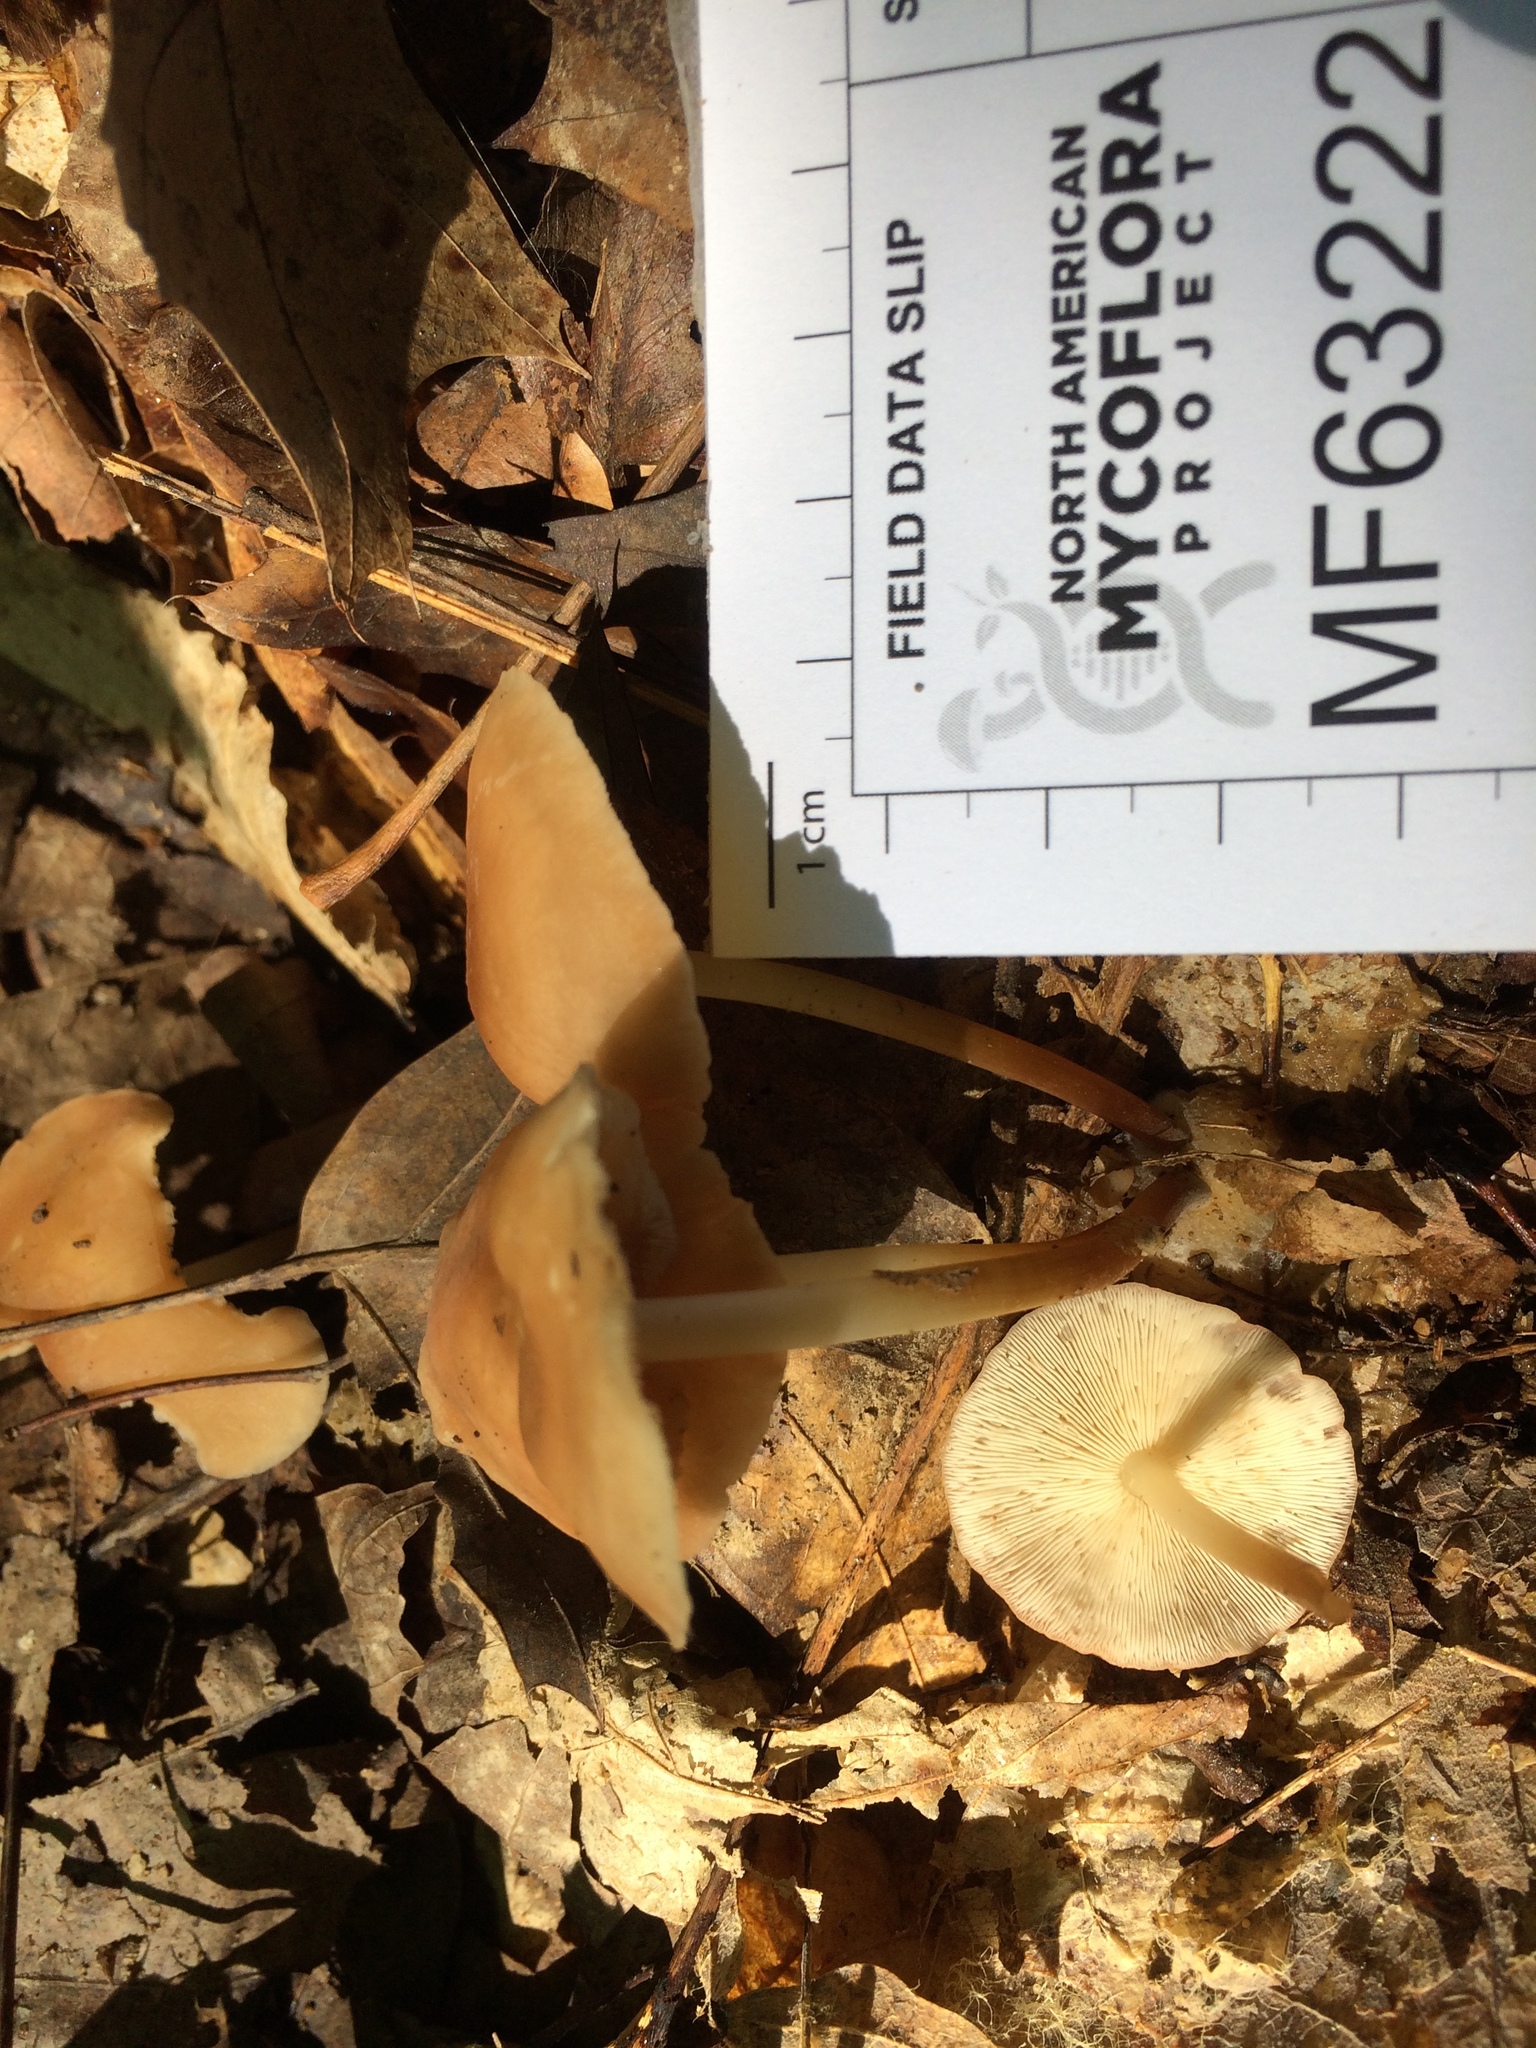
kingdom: Fungi
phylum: Basidiomycota
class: Agaricomycetes
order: Agaricales
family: Marasmiaceae
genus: Marasmius
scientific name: Marasmius spissus
